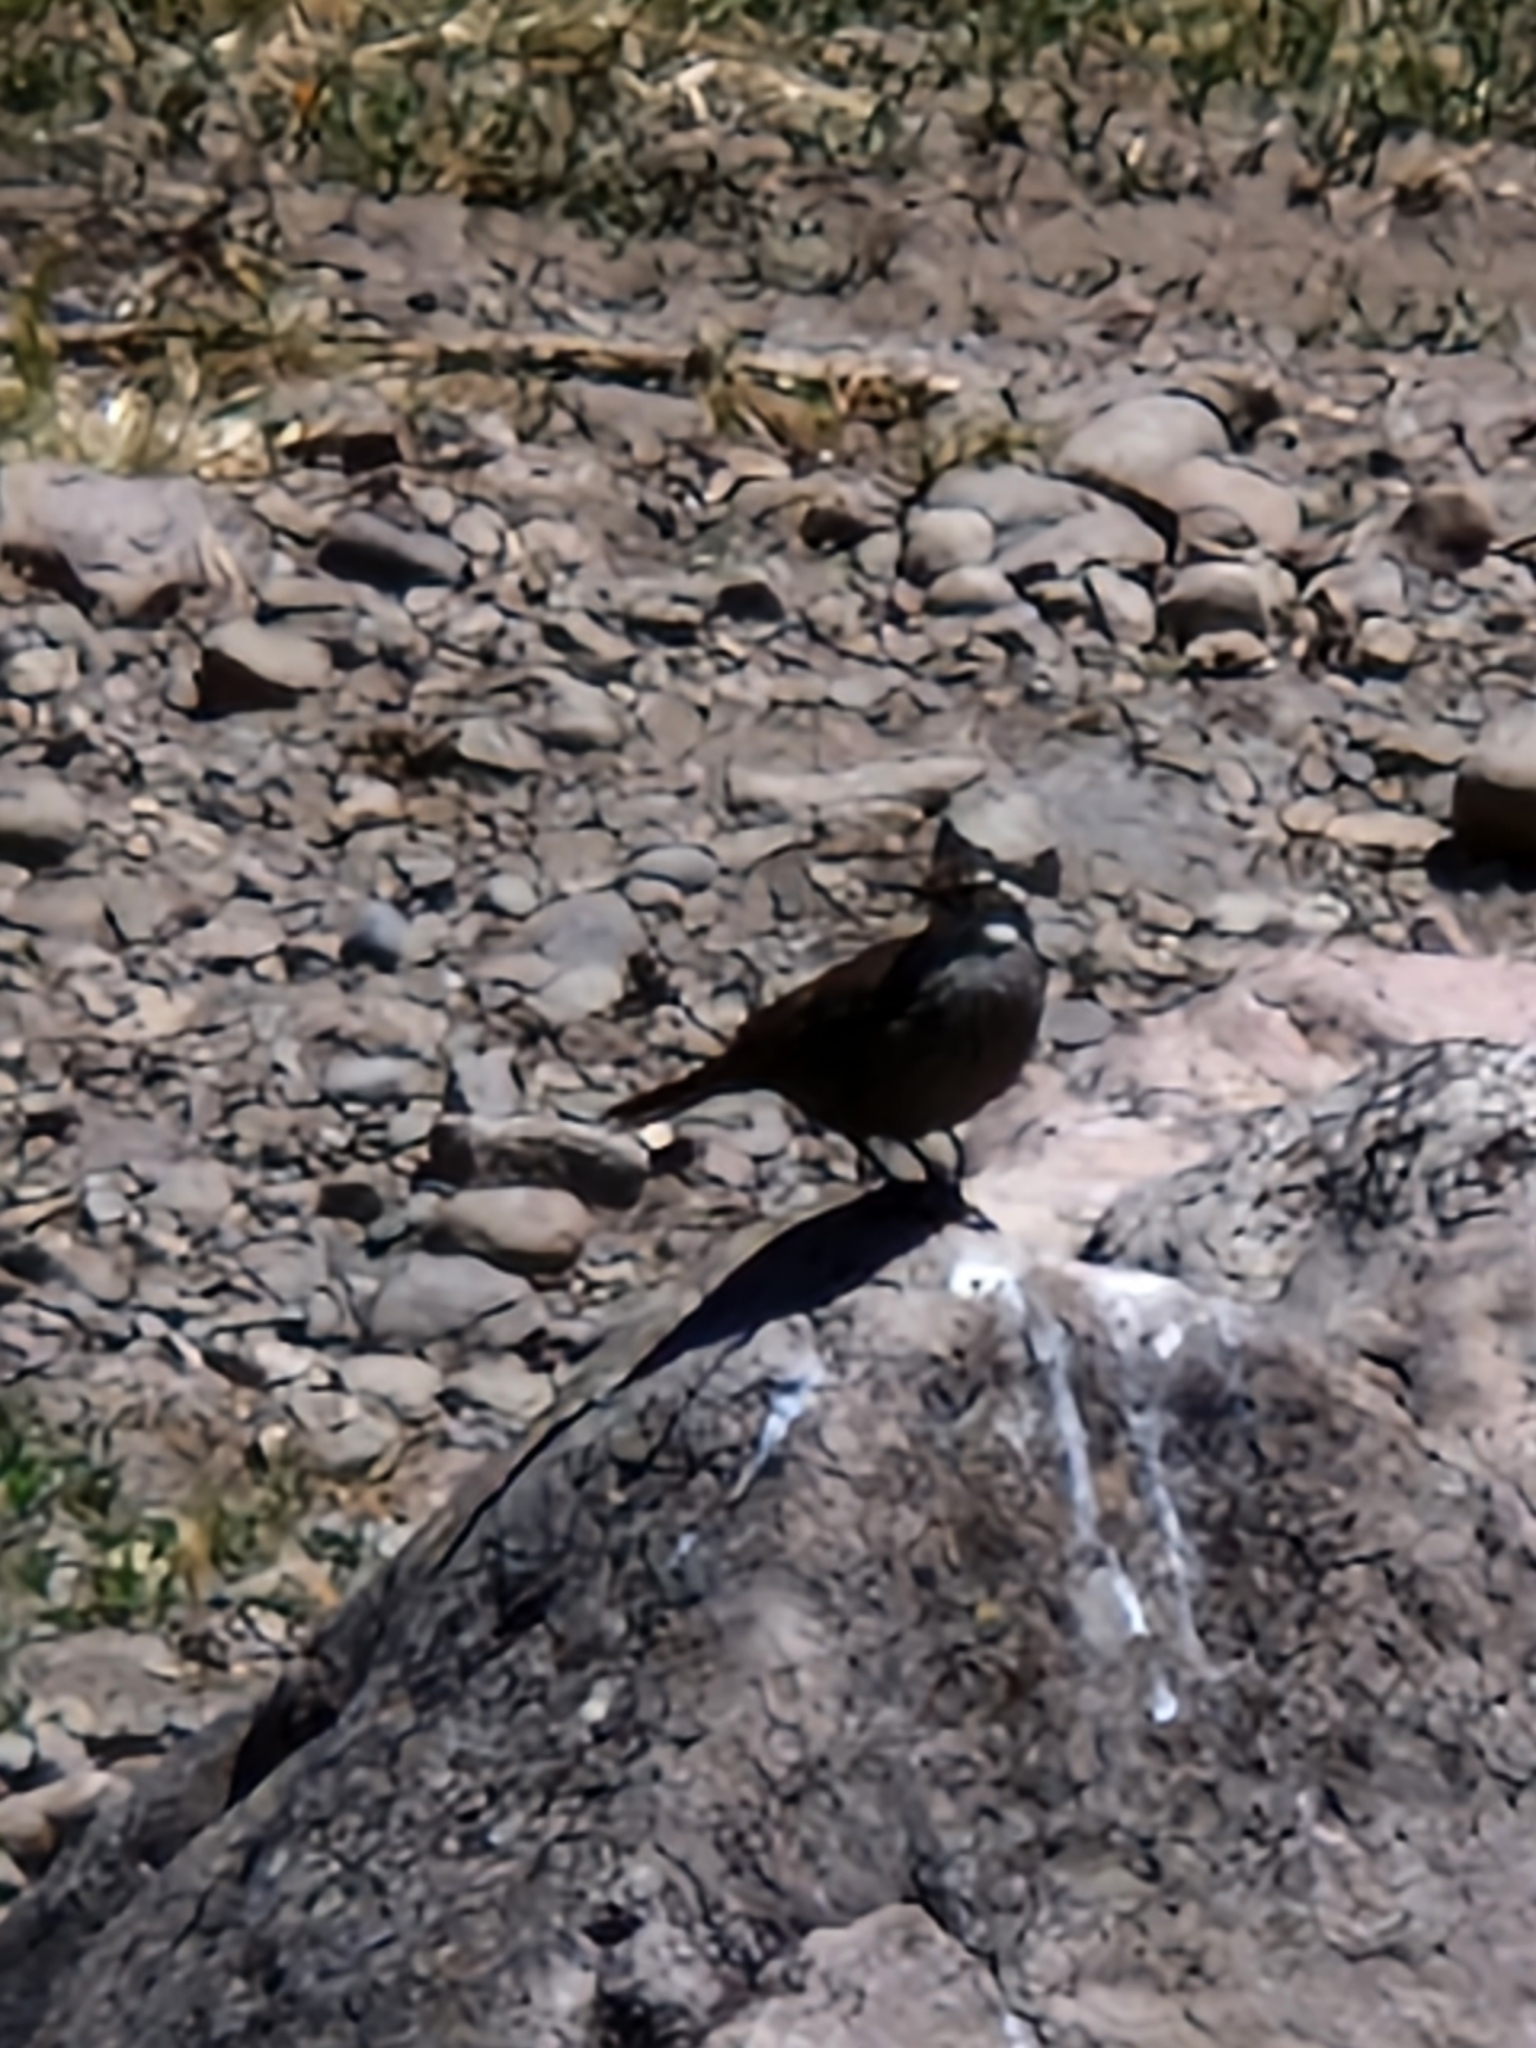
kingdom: Animalia
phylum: Chordata
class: Aves
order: Passeriformes
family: Furnariidae
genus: Cinclodes
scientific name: Cinclodes patagonicus
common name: Dark-bellied cinclodes
